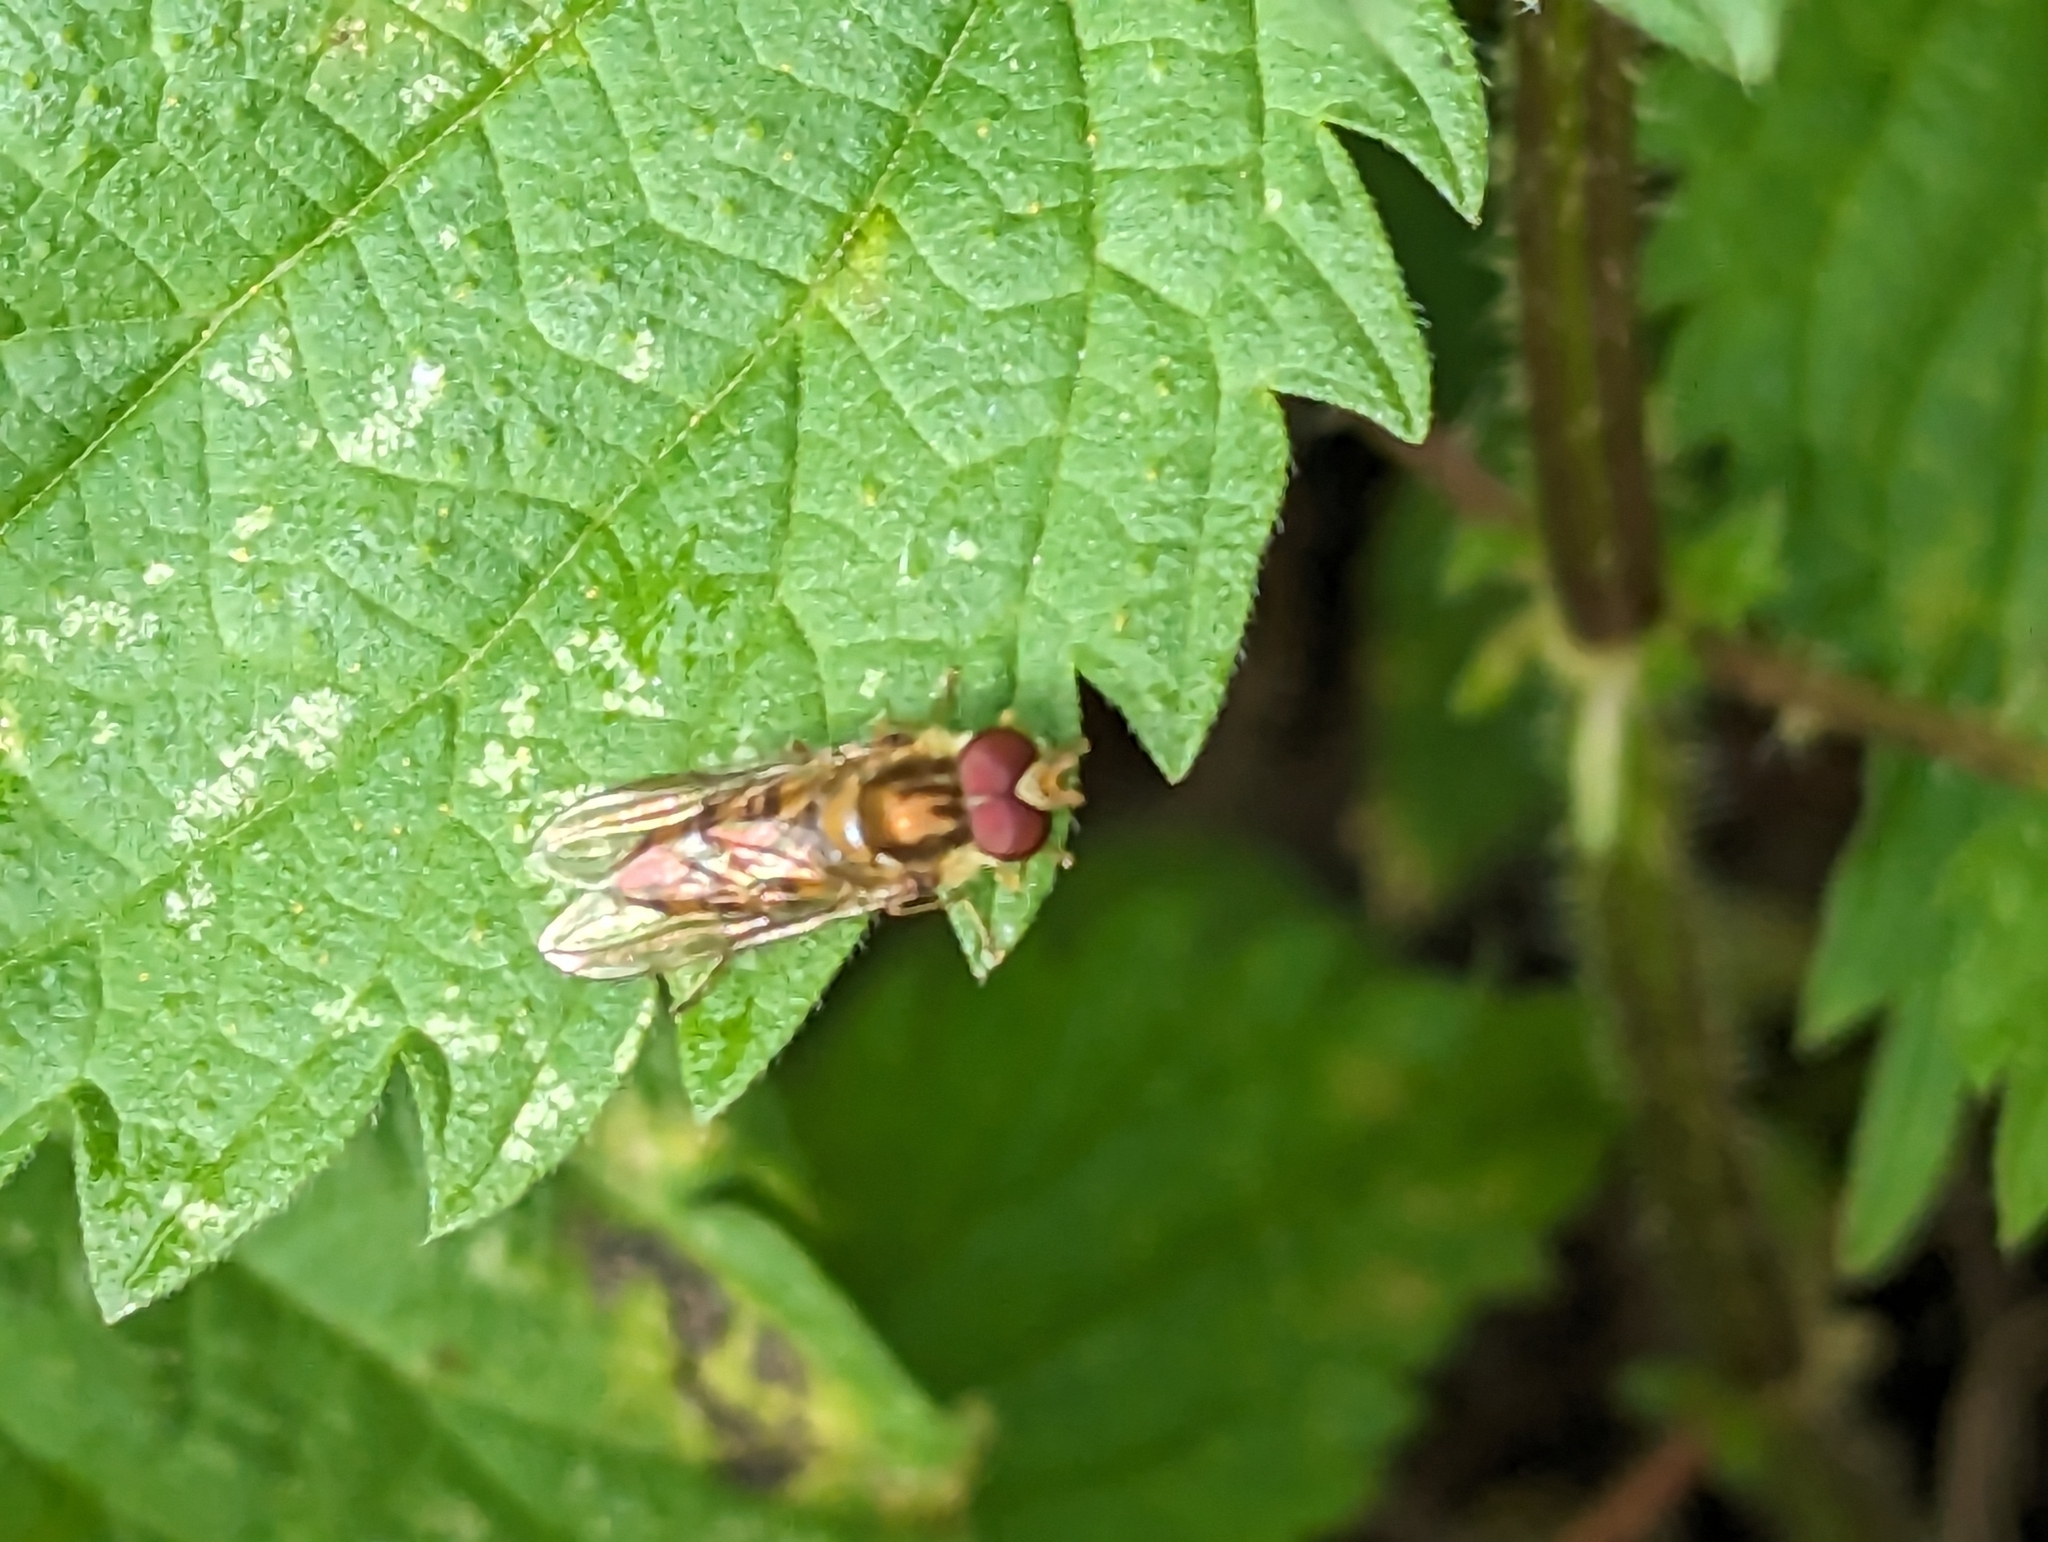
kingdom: Animalia
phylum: Arthropoda
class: Insecta
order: Diptera
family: Syrphidae
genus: Episyrphus
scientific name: Episyrphus balteatus
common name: Marmalade hoverfly
